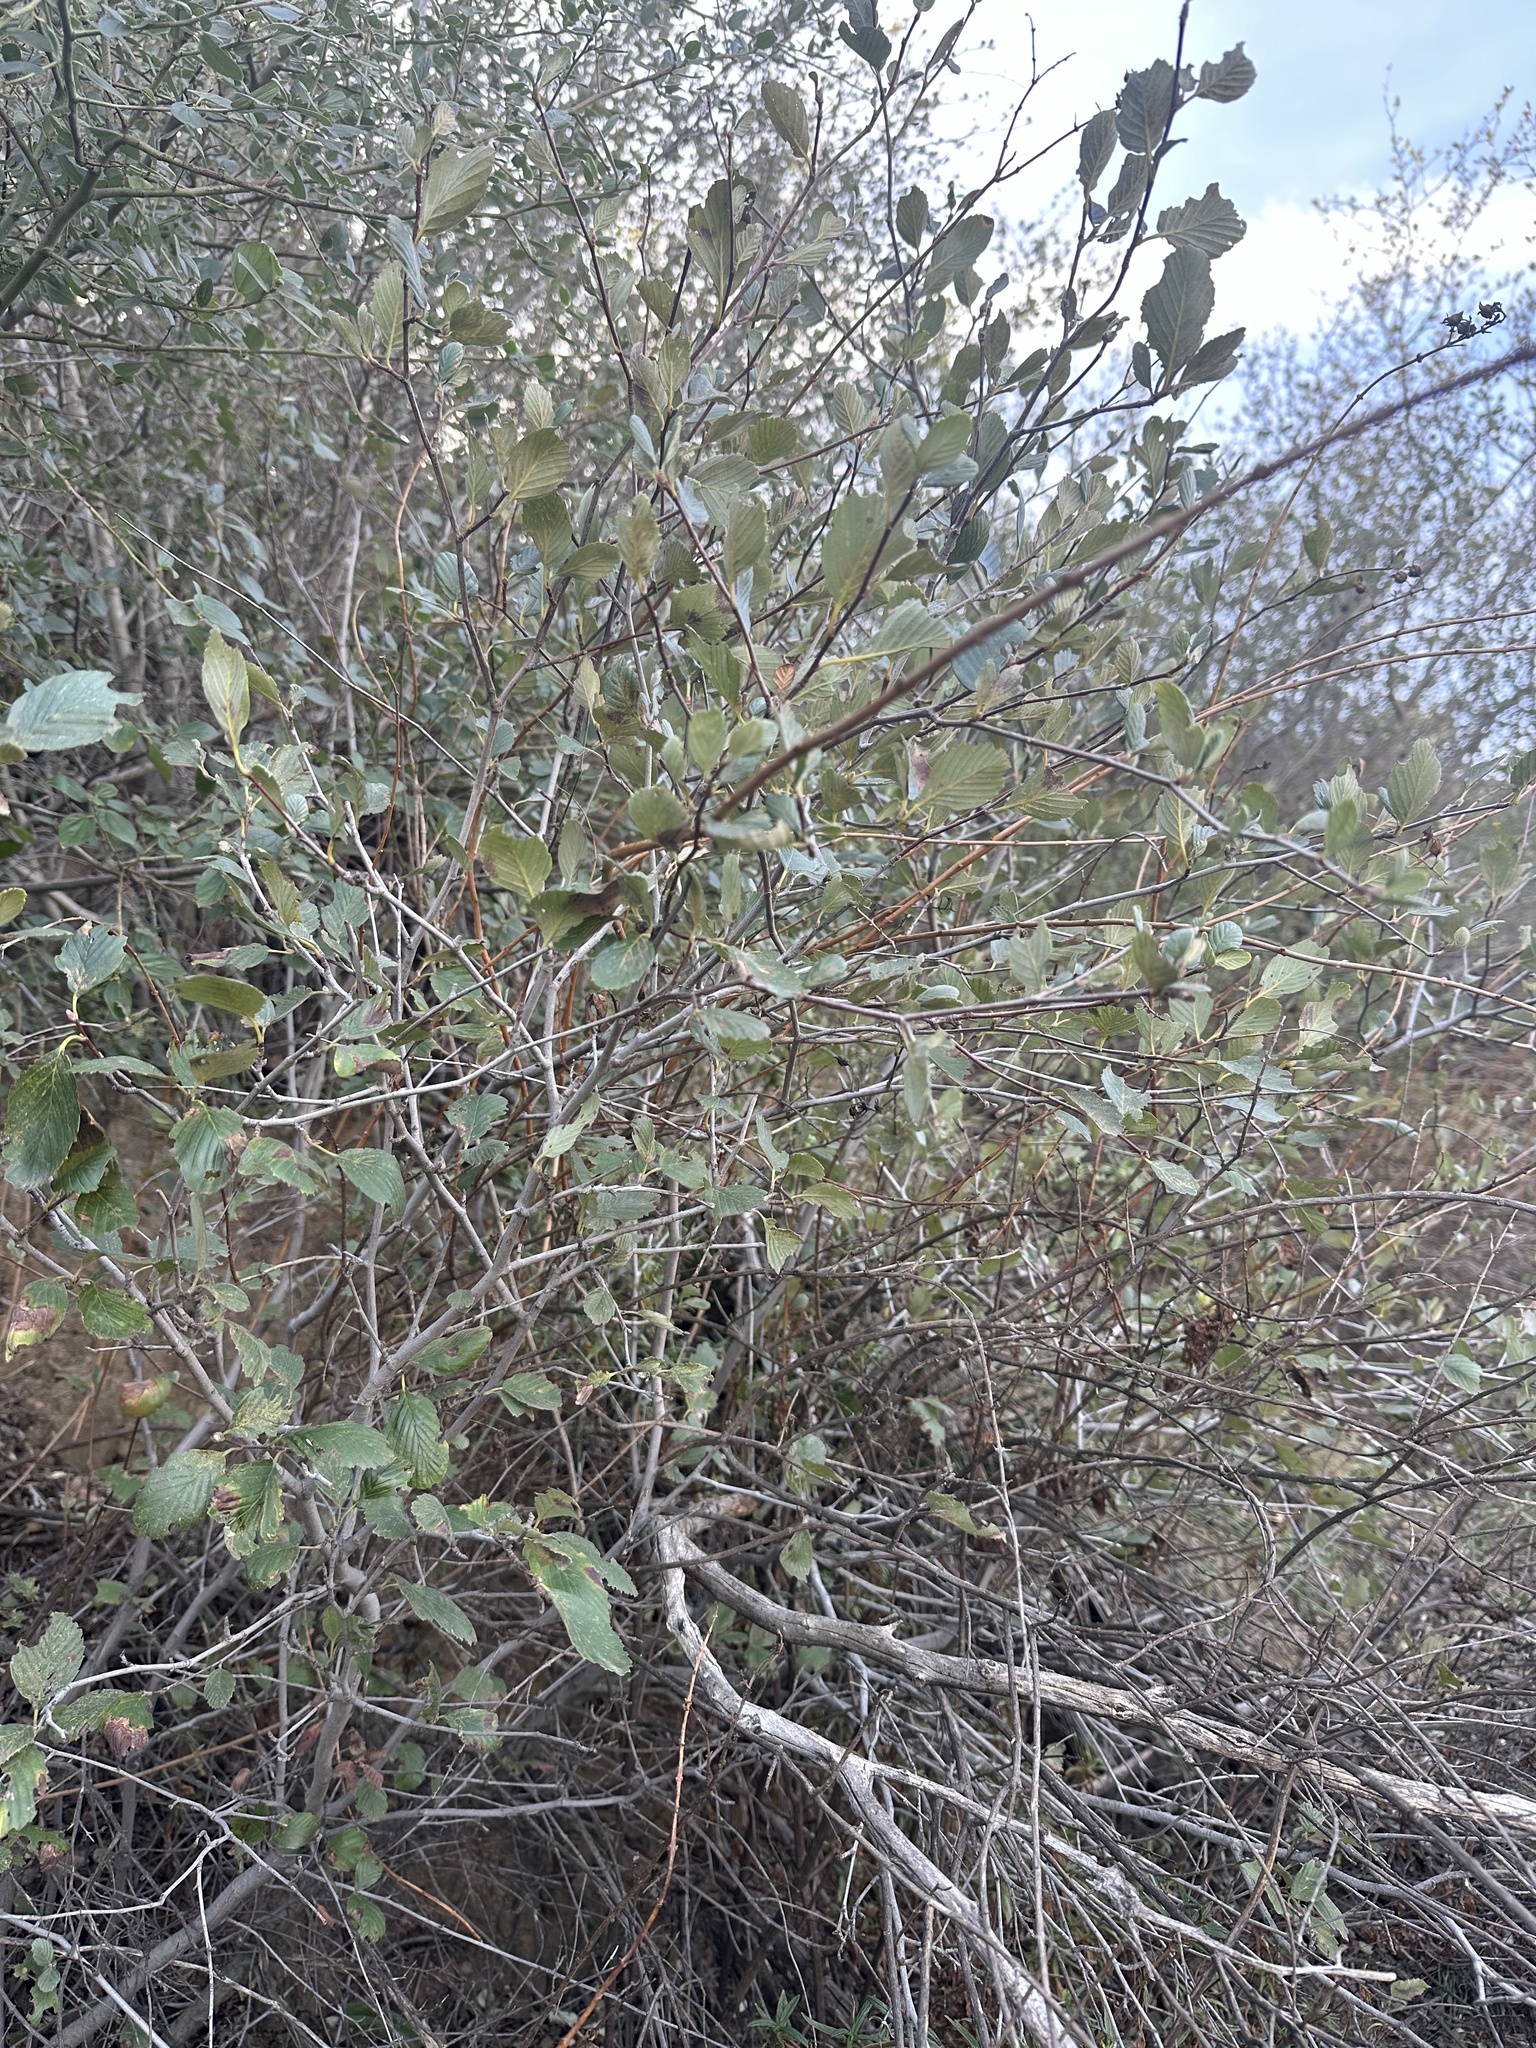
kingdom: Plantae
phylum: Tracheophyta
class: Magnoliopsida
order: Rosales
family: Rosaceae
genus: Cercocarpus
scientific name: Cercocarpus betuloides
